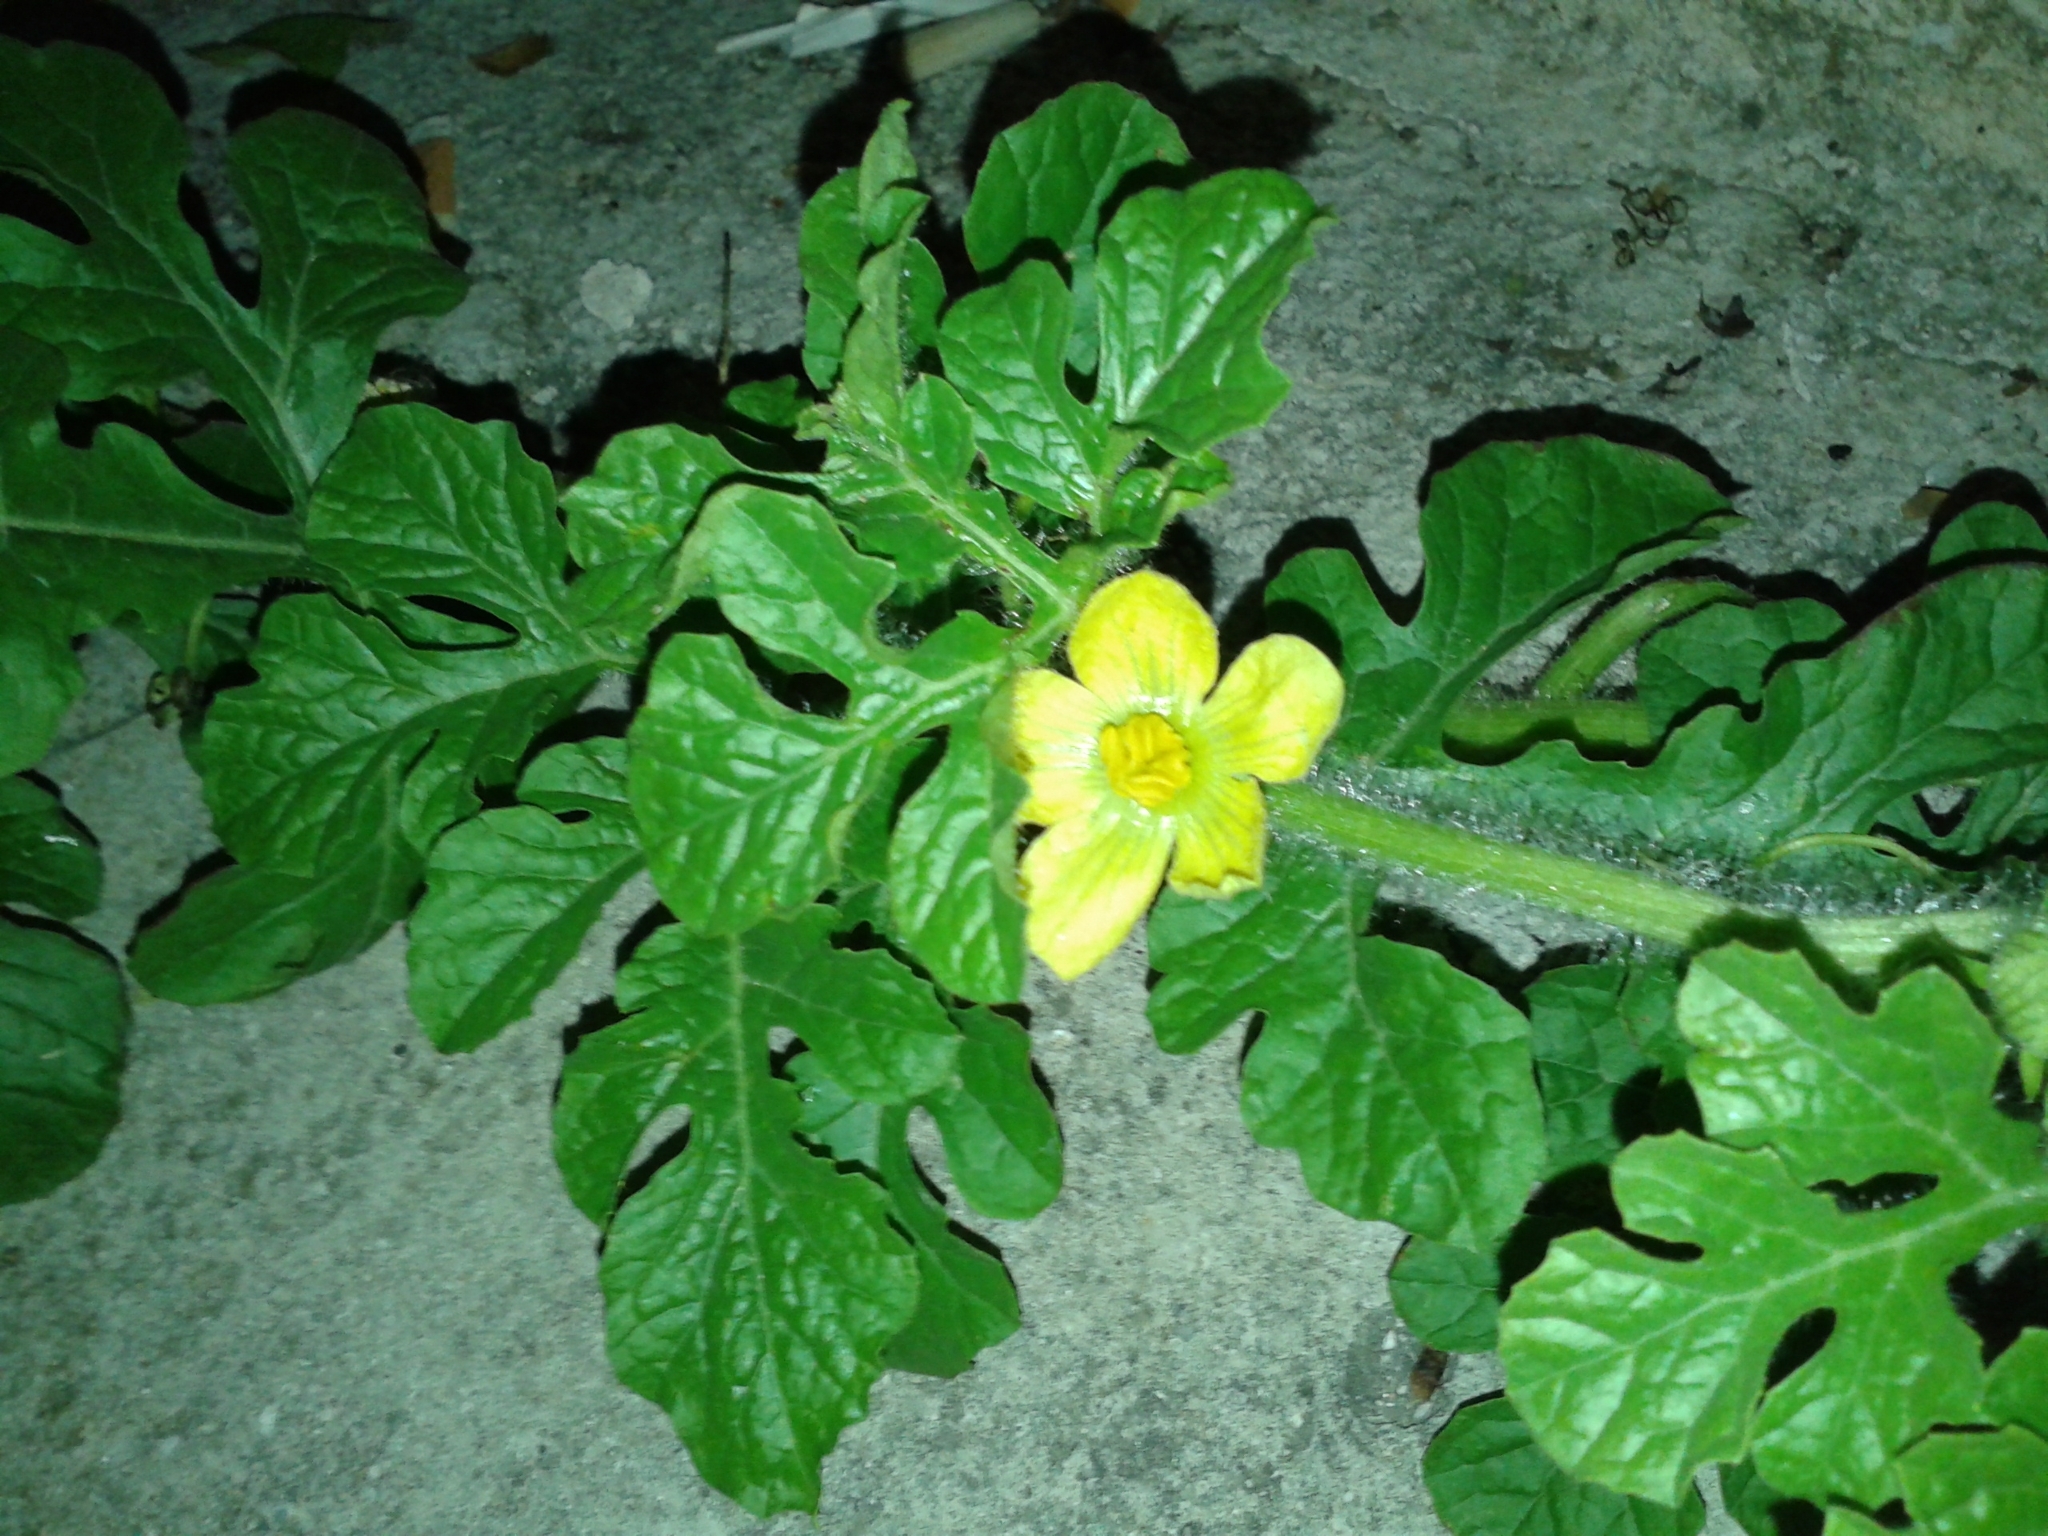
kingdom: Plantae
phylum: Tracheophyta
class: Magnoliopsida
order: Cucurbitales
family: Cucurbitaceae
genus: Citrullus
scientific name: Citrullus lanatus
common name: Watermelon
